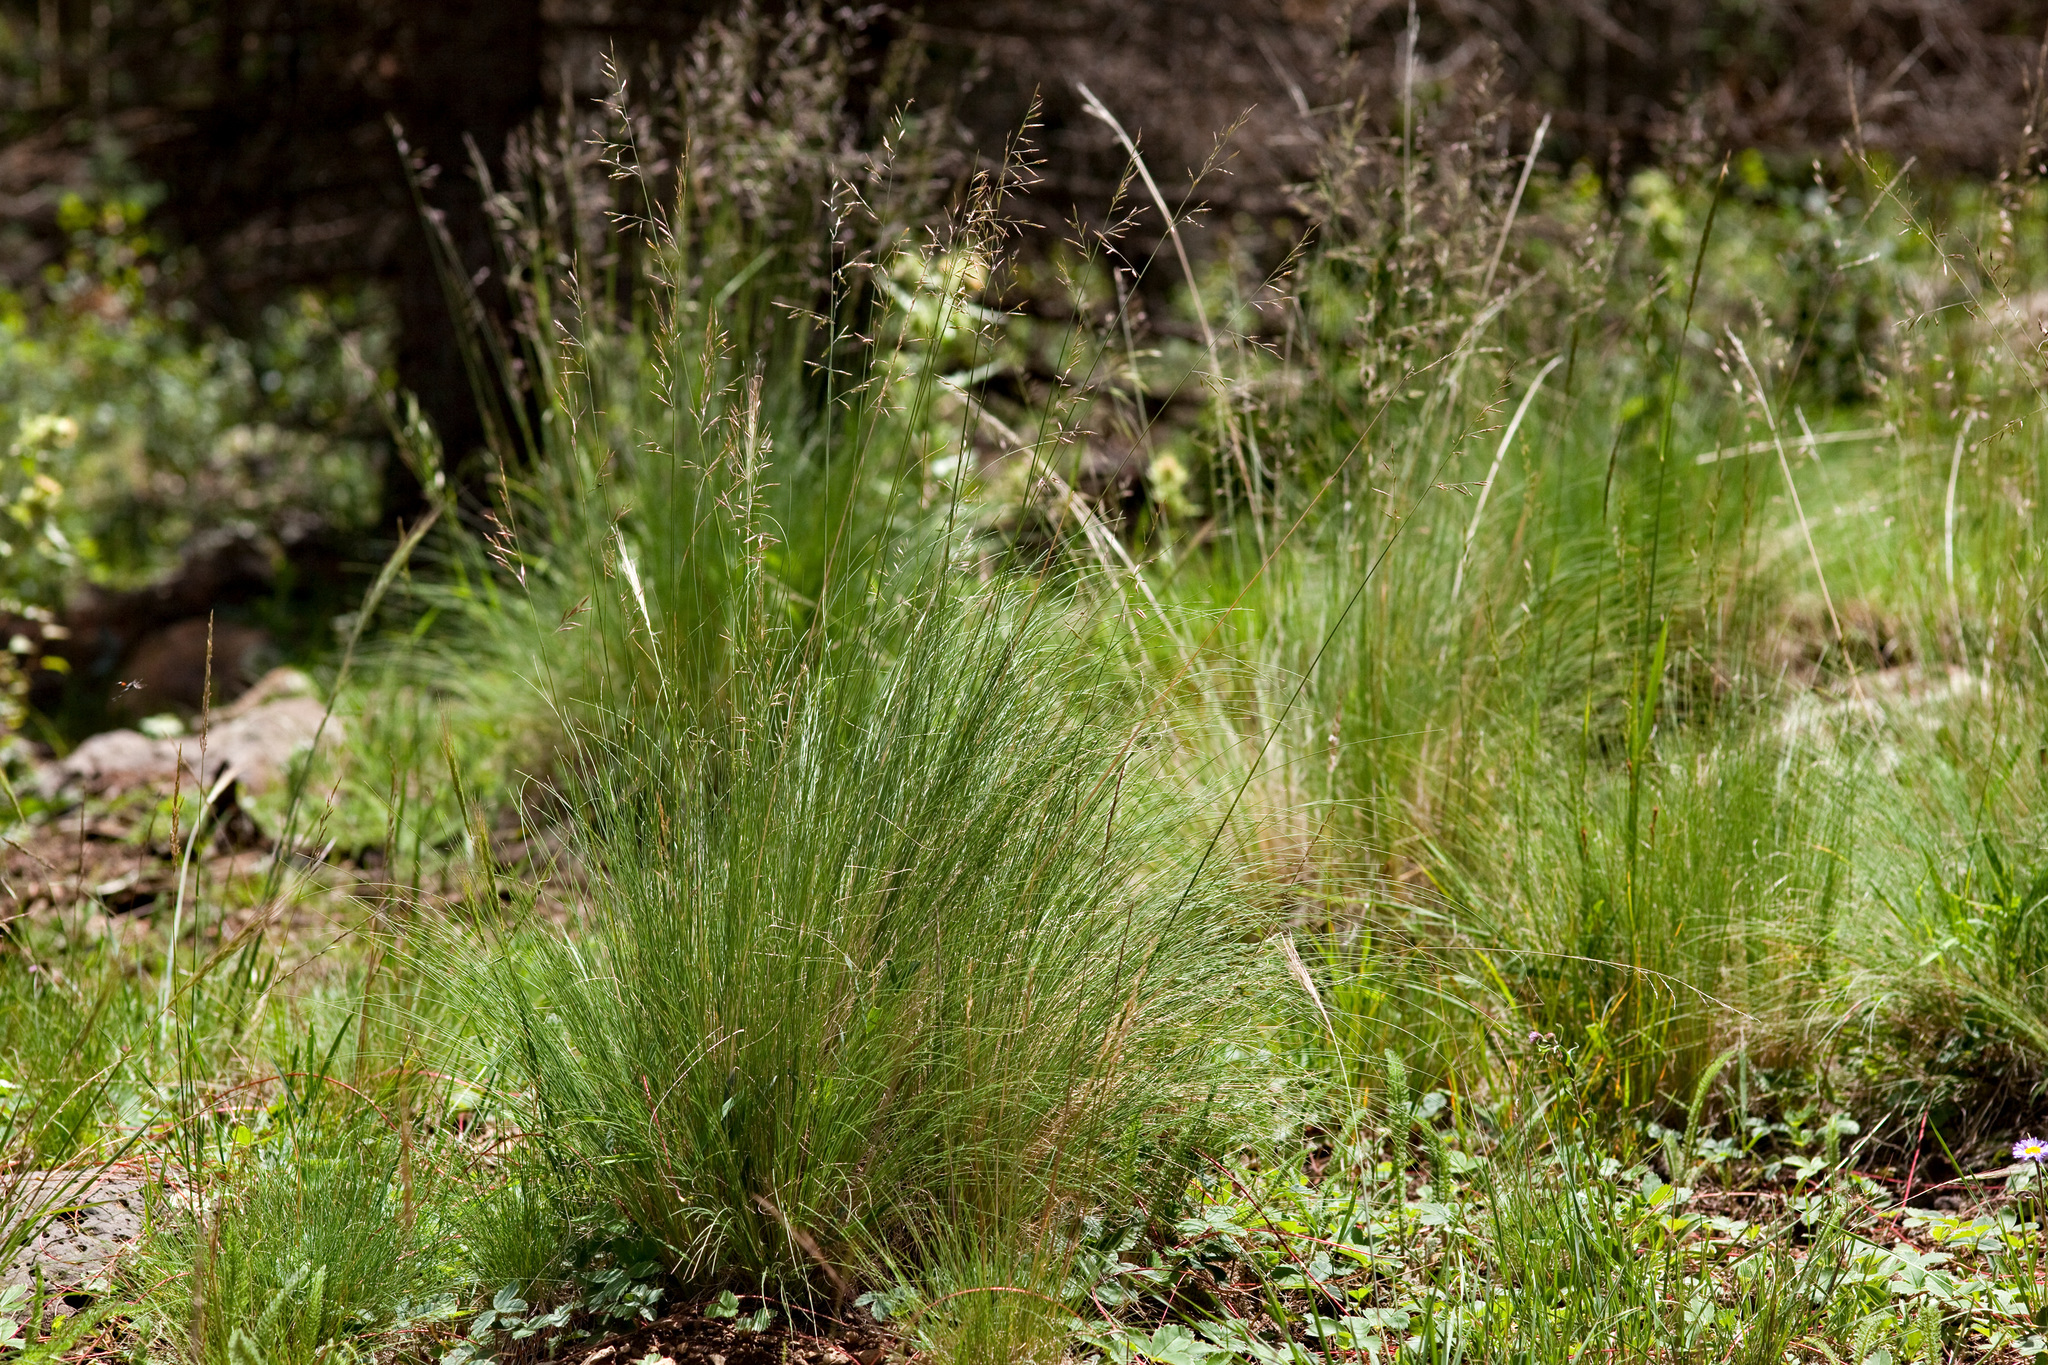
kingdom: Plantae
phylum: Tracheophyta
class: Liliopsida
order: Poales
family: Poaceae
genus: Festuca
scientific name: Festuca arizonica
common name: Pinegrass
